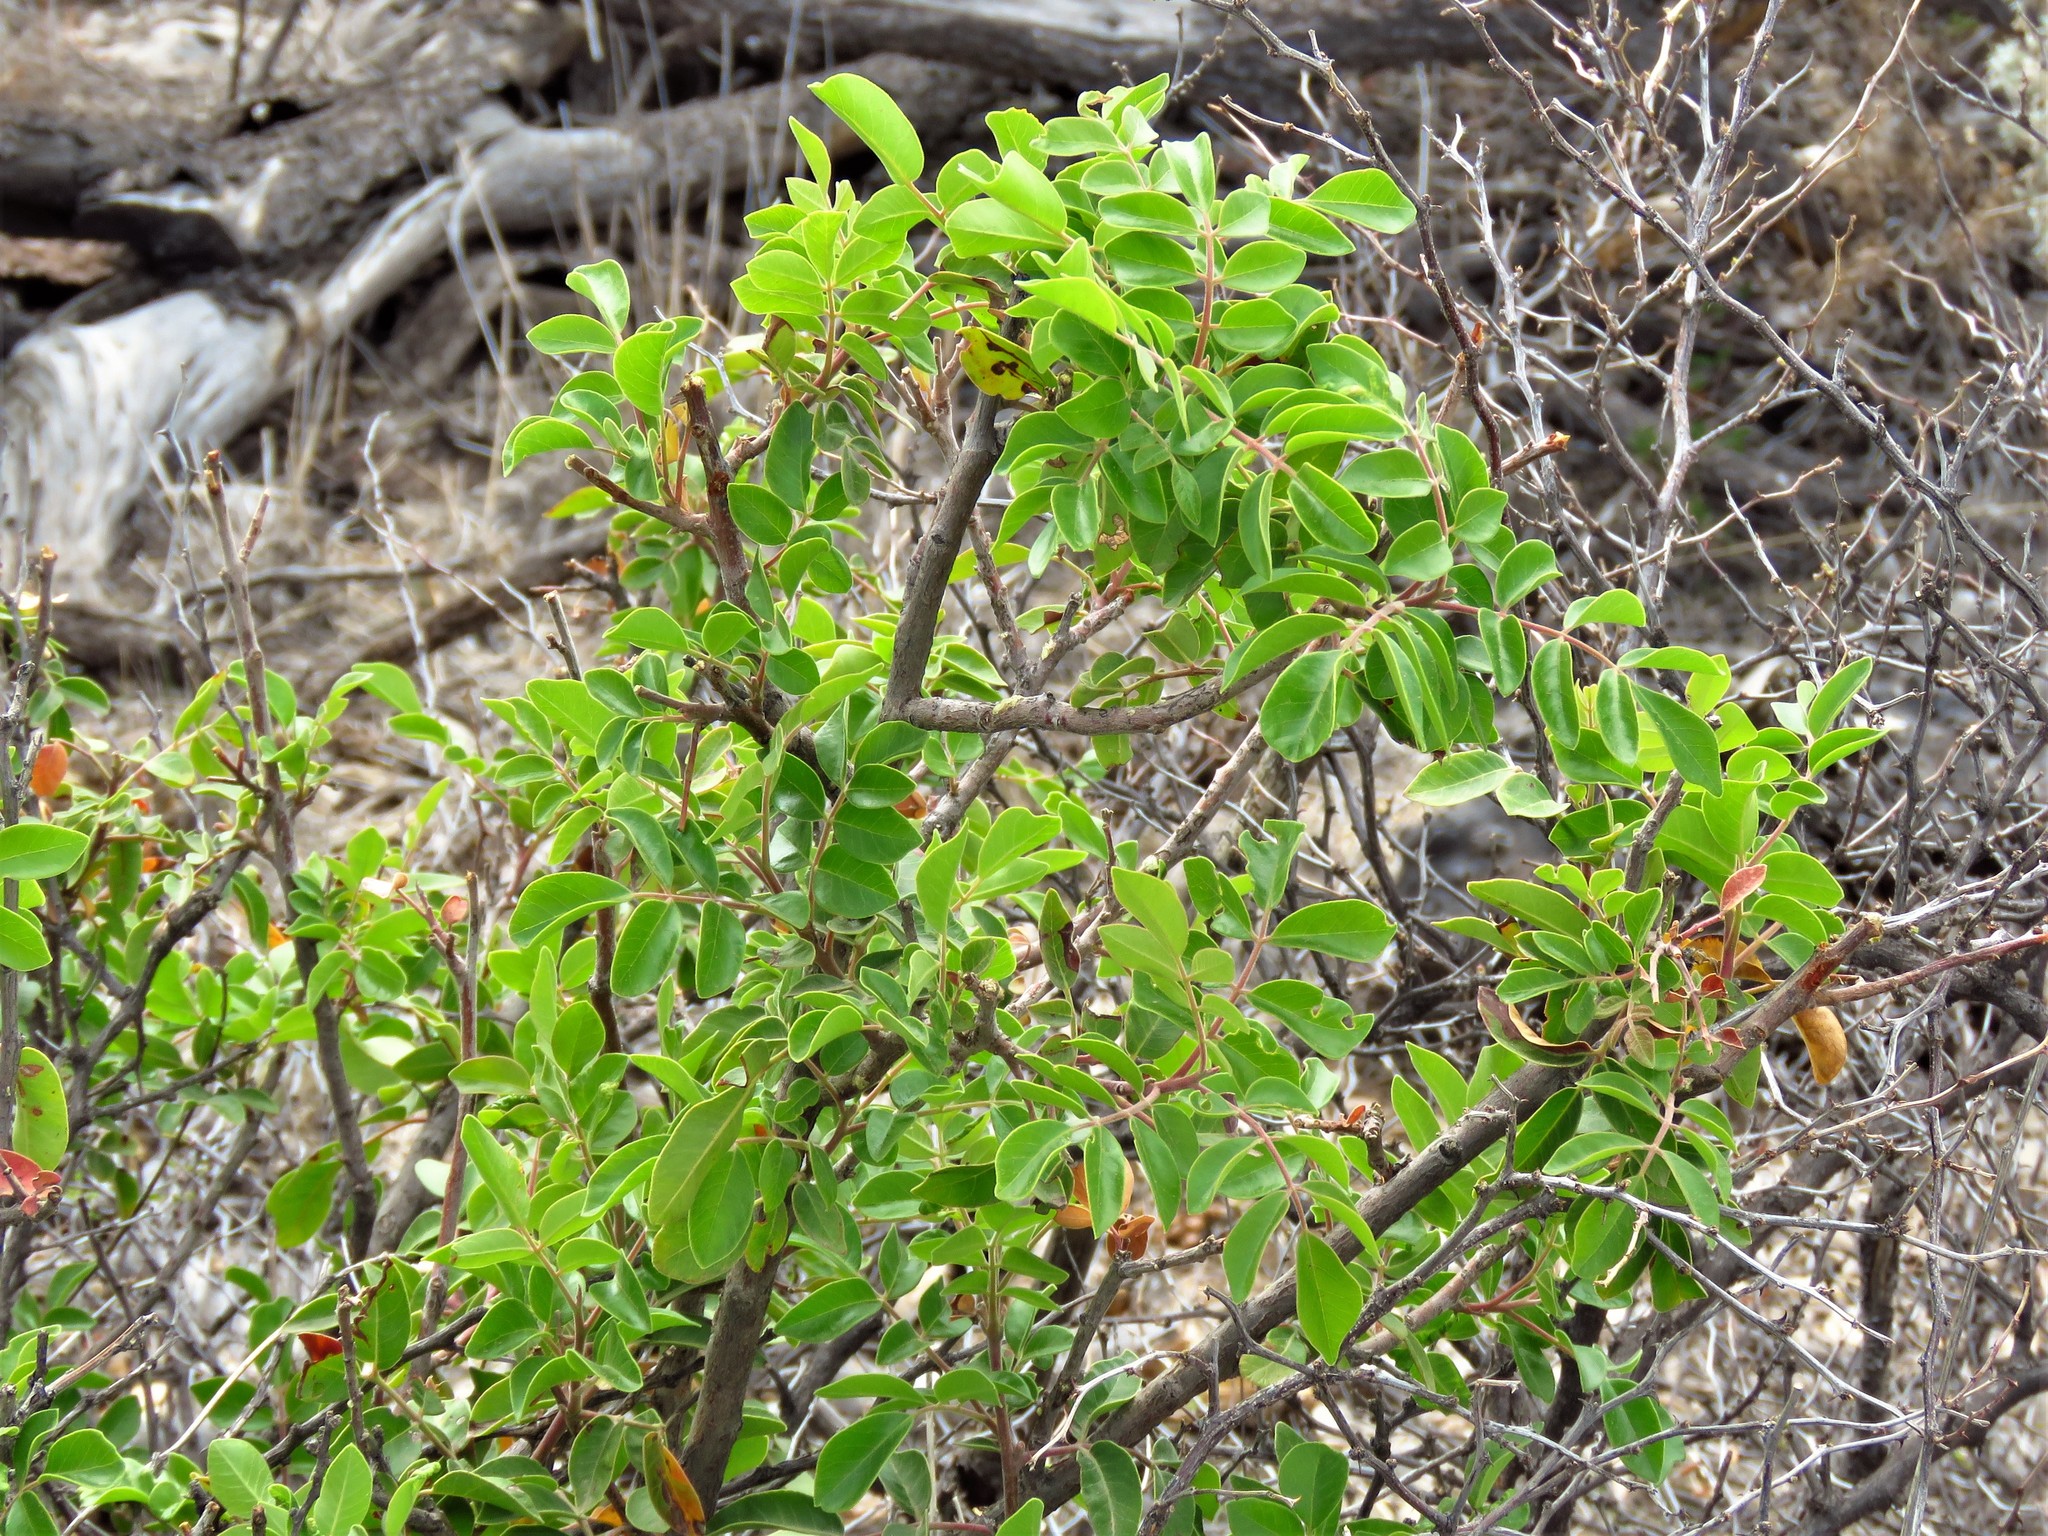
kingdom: Plantae
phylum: Tracheophyta
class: Magnoliopsida
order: Sapindales
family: Anacardiaceae
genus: Rhus
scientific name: Rhus virens
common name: Evergreen sumac
